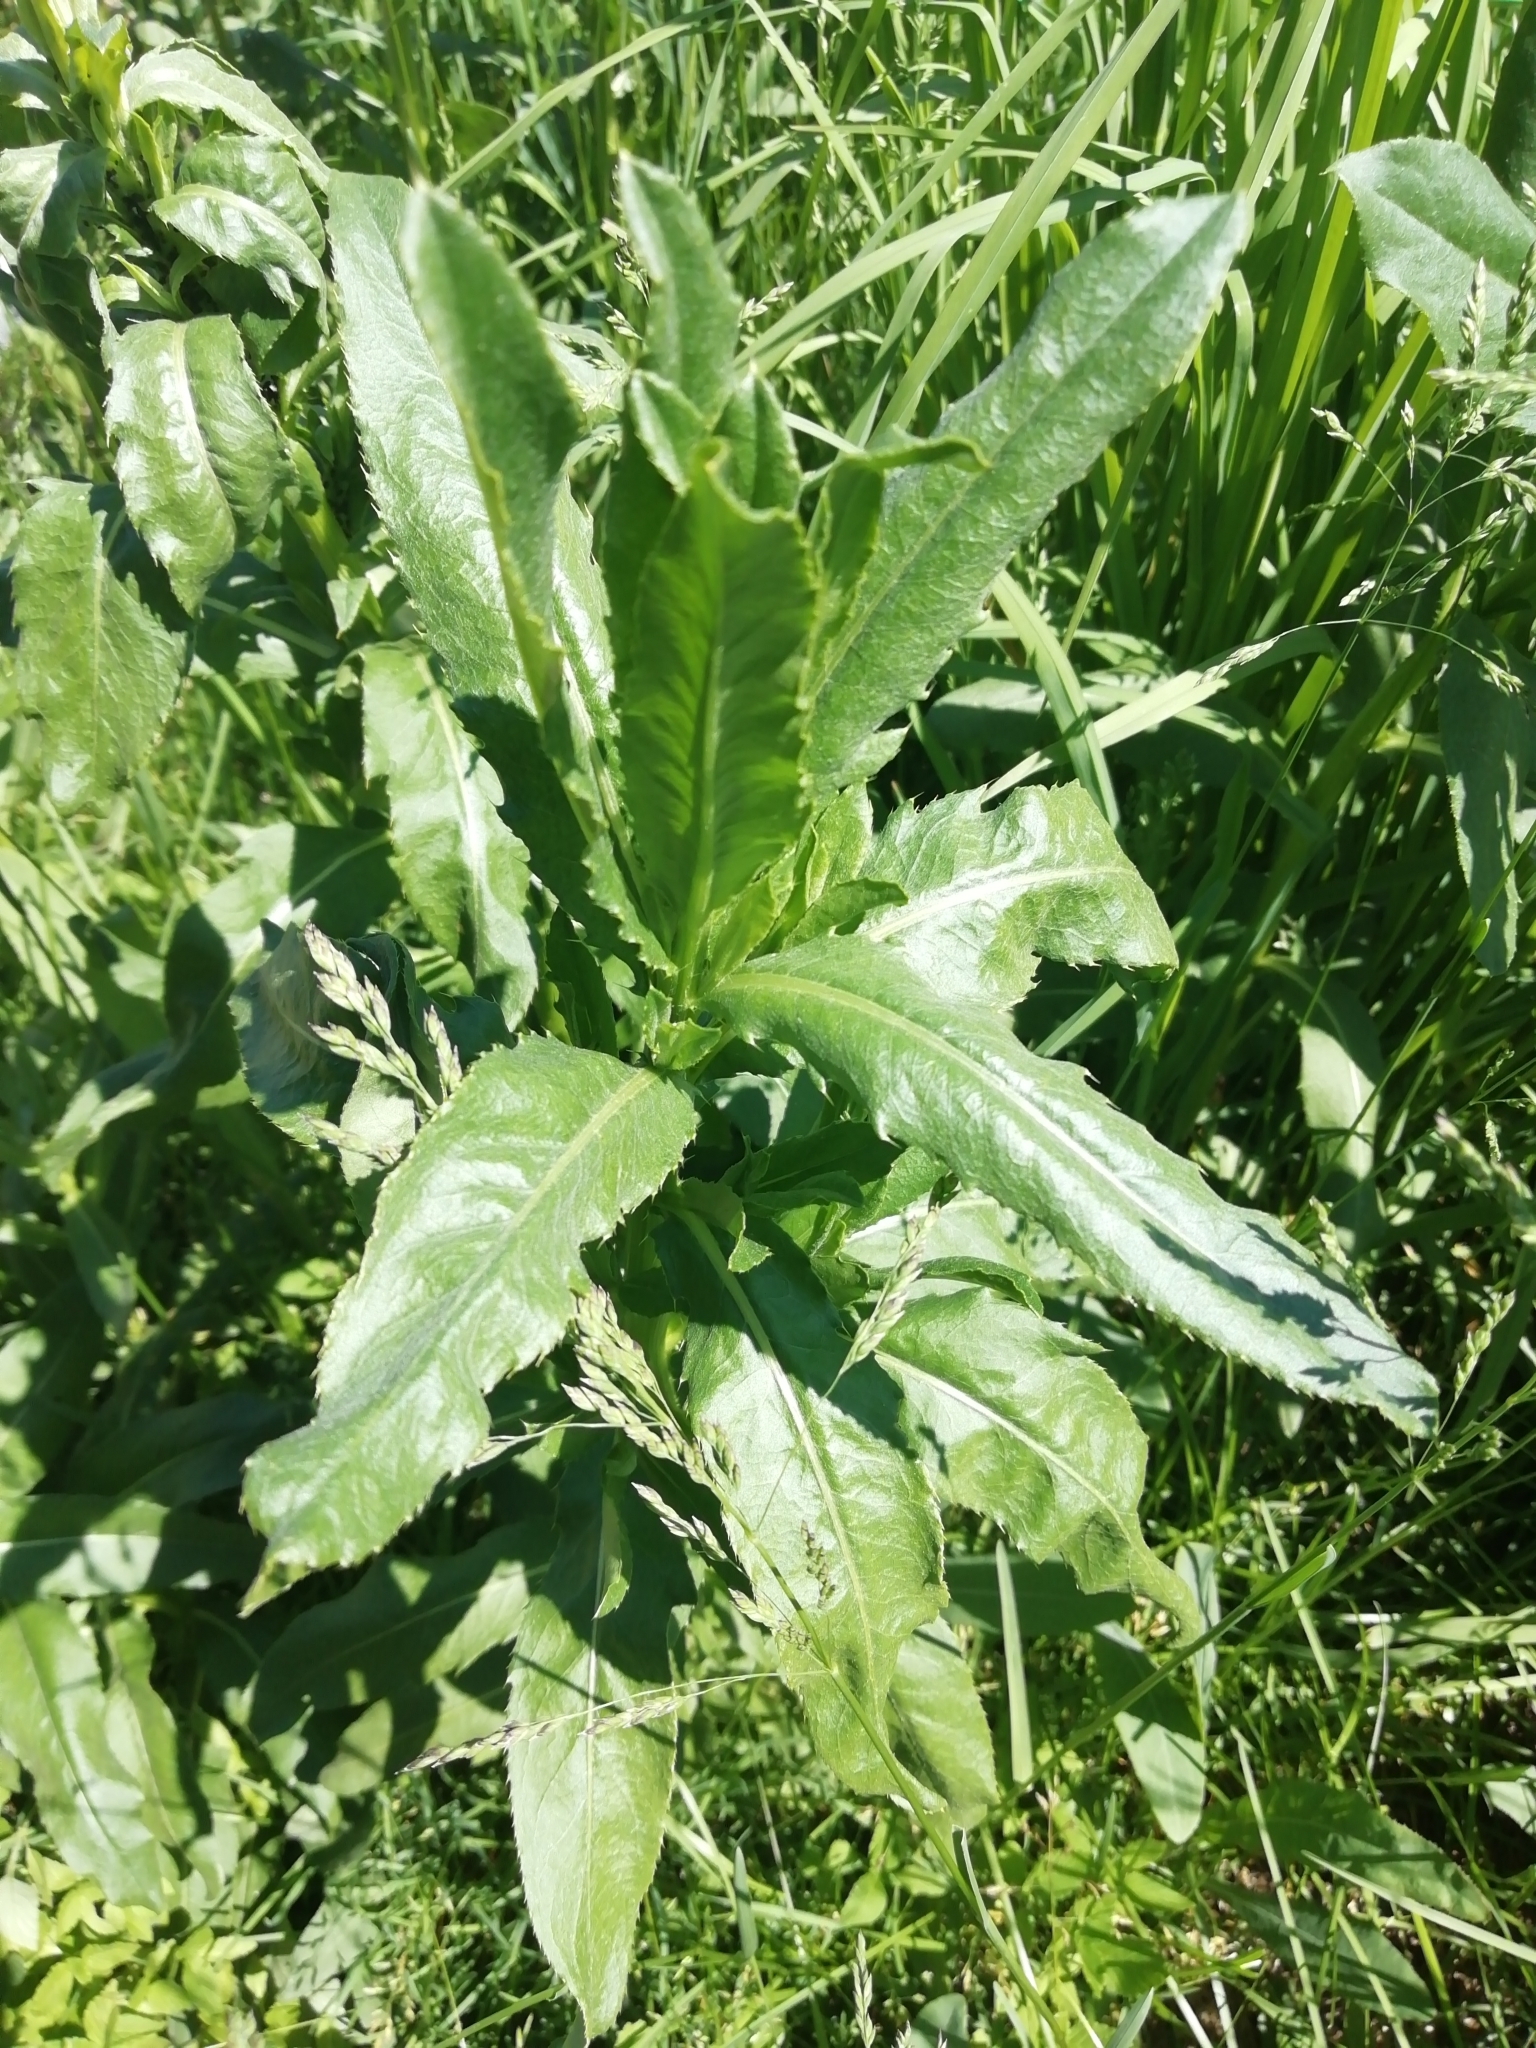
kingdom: Plantae
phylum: Tracheophyta
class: Magnoliopsida
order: Asterales
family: Asteraceae
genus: Cirsium
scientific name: Cirsium arvense
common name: Creeping thistle
